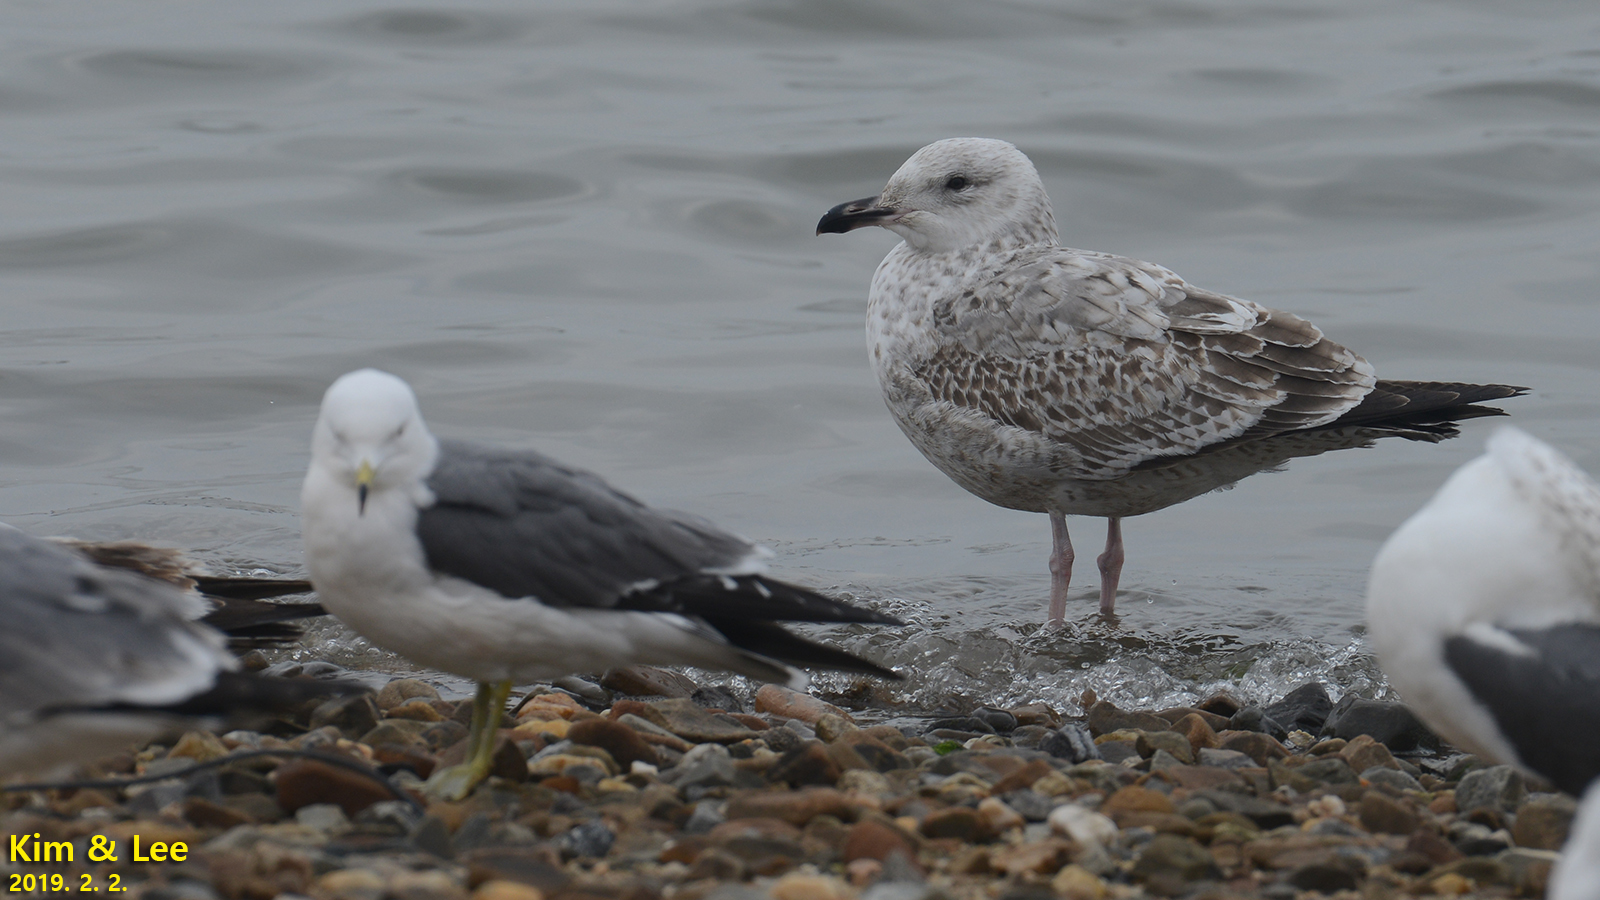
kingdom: Animalia
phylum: Chordata
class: Aves
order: Charadriiformes
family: Laridae
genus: Larus
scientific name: Larus fuscus
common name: Lesser black-backed gull
